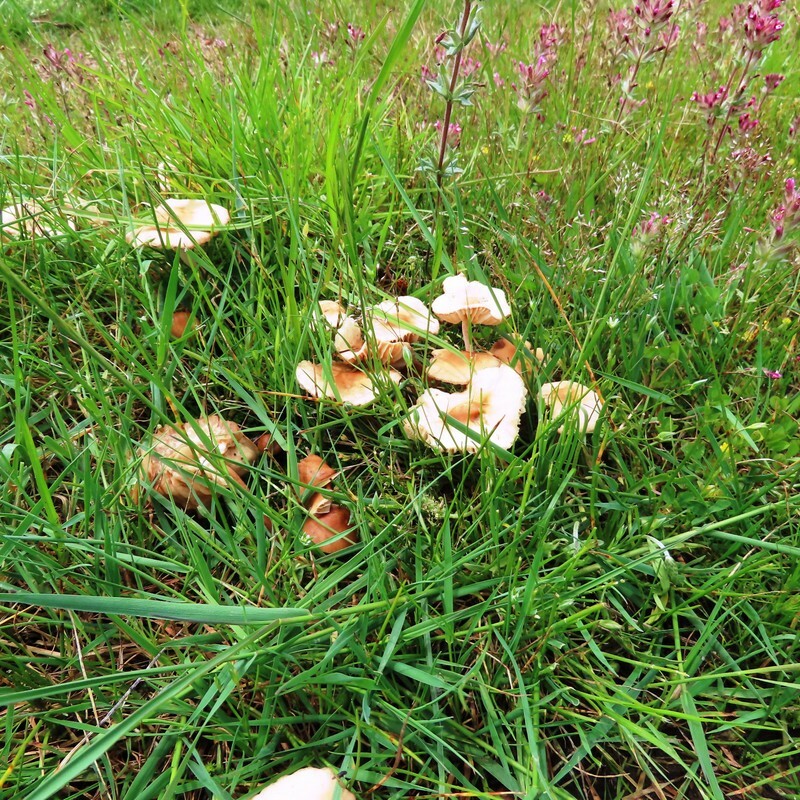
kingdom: Fungi
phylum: Basidiomycota
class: Agaricomycetes
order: Agaricales
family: Marasmiaceae
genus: Marasmius
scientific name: Marasmius oreades
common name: Fairy ring champignon
